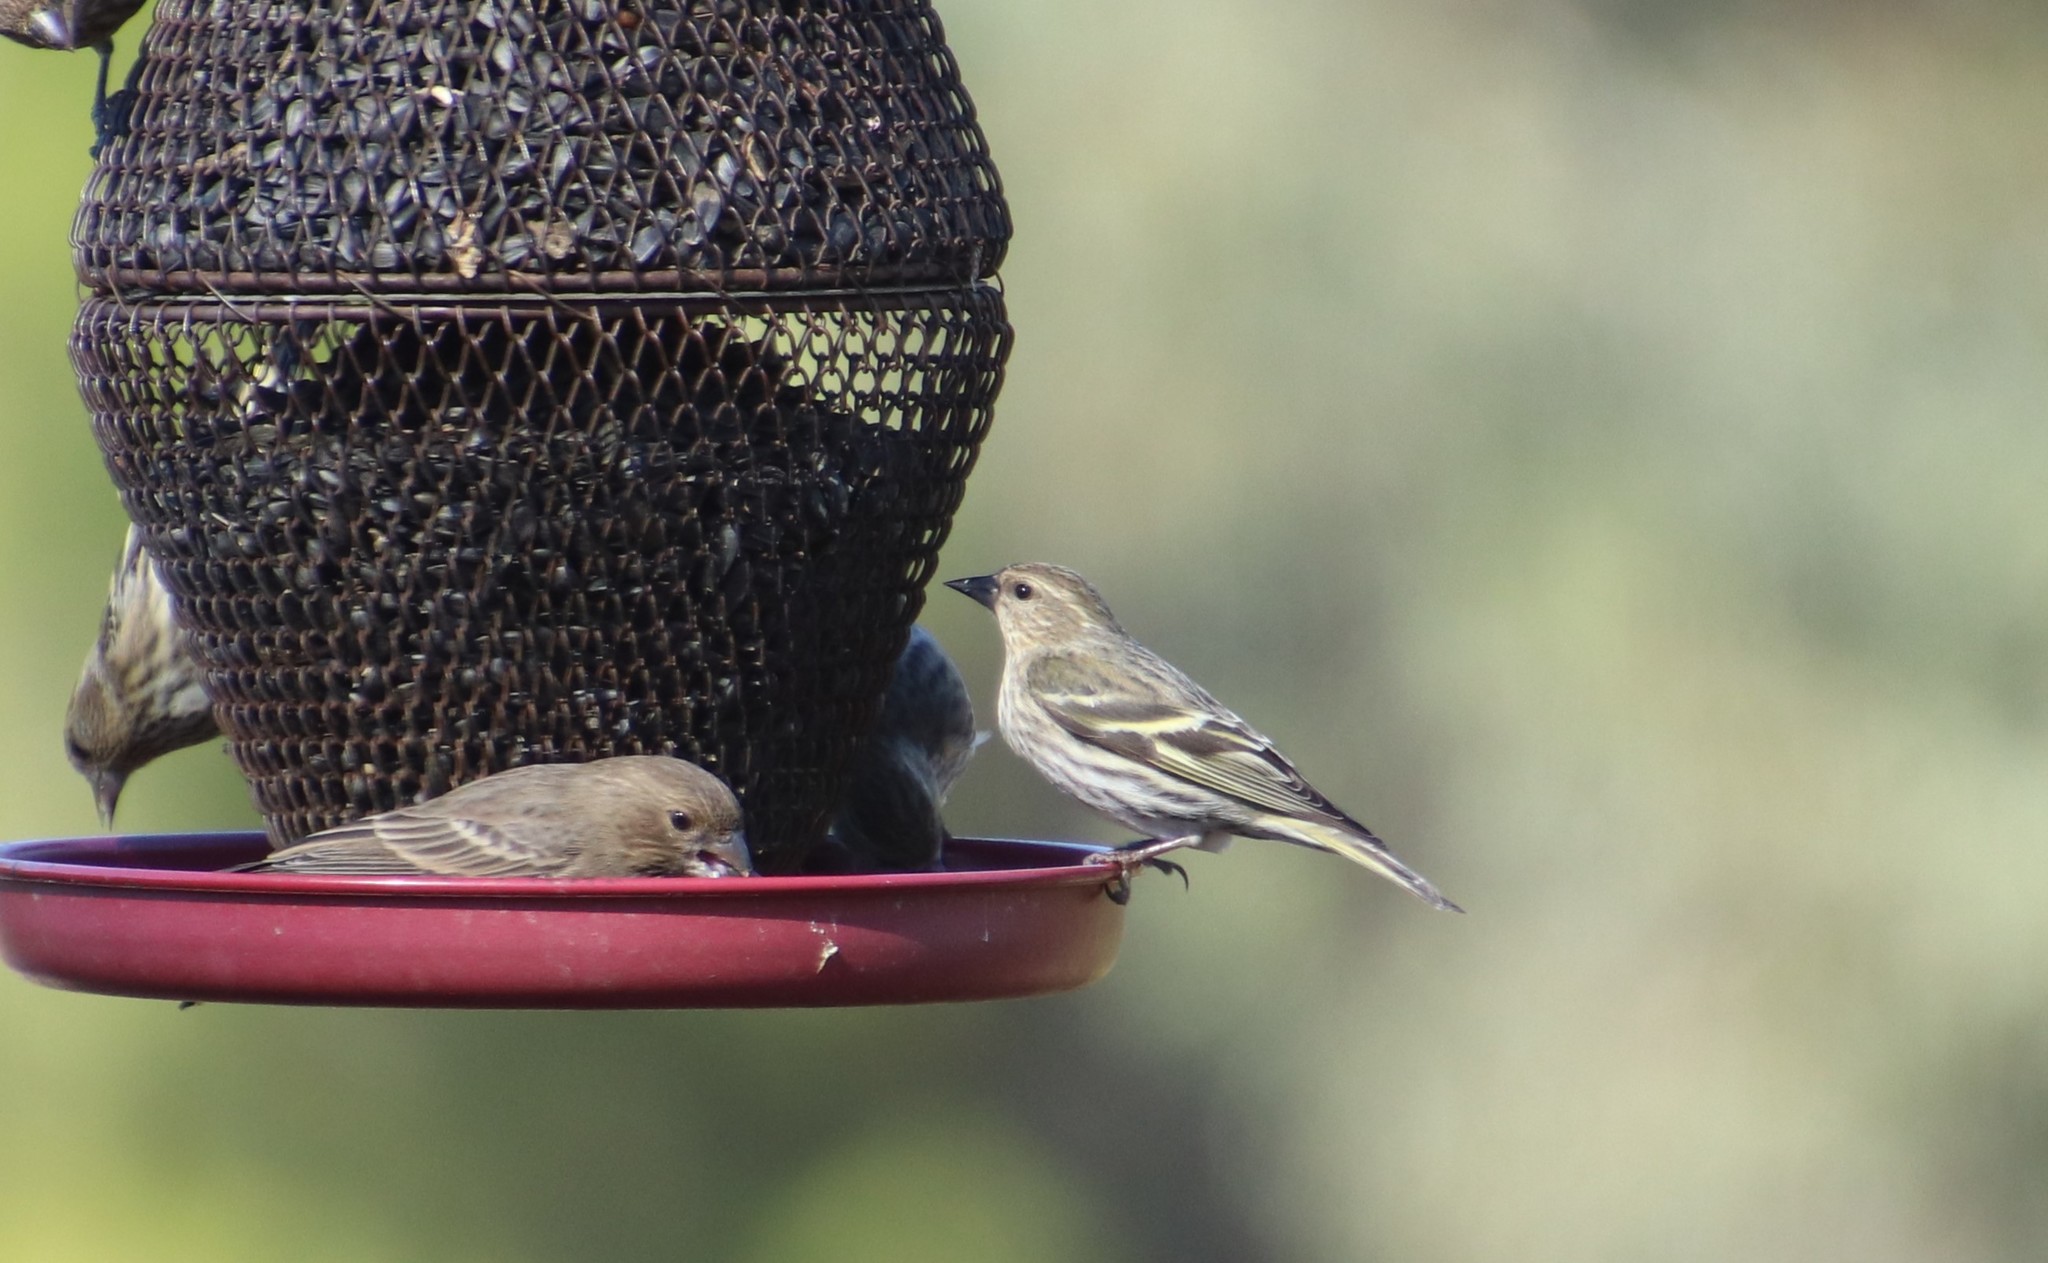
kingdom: Animalia
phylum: Chordata
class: Aves
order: Passeriformes
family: Fringillidae
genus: Spinus
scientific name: Spinus pinus
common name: Pine siskin
